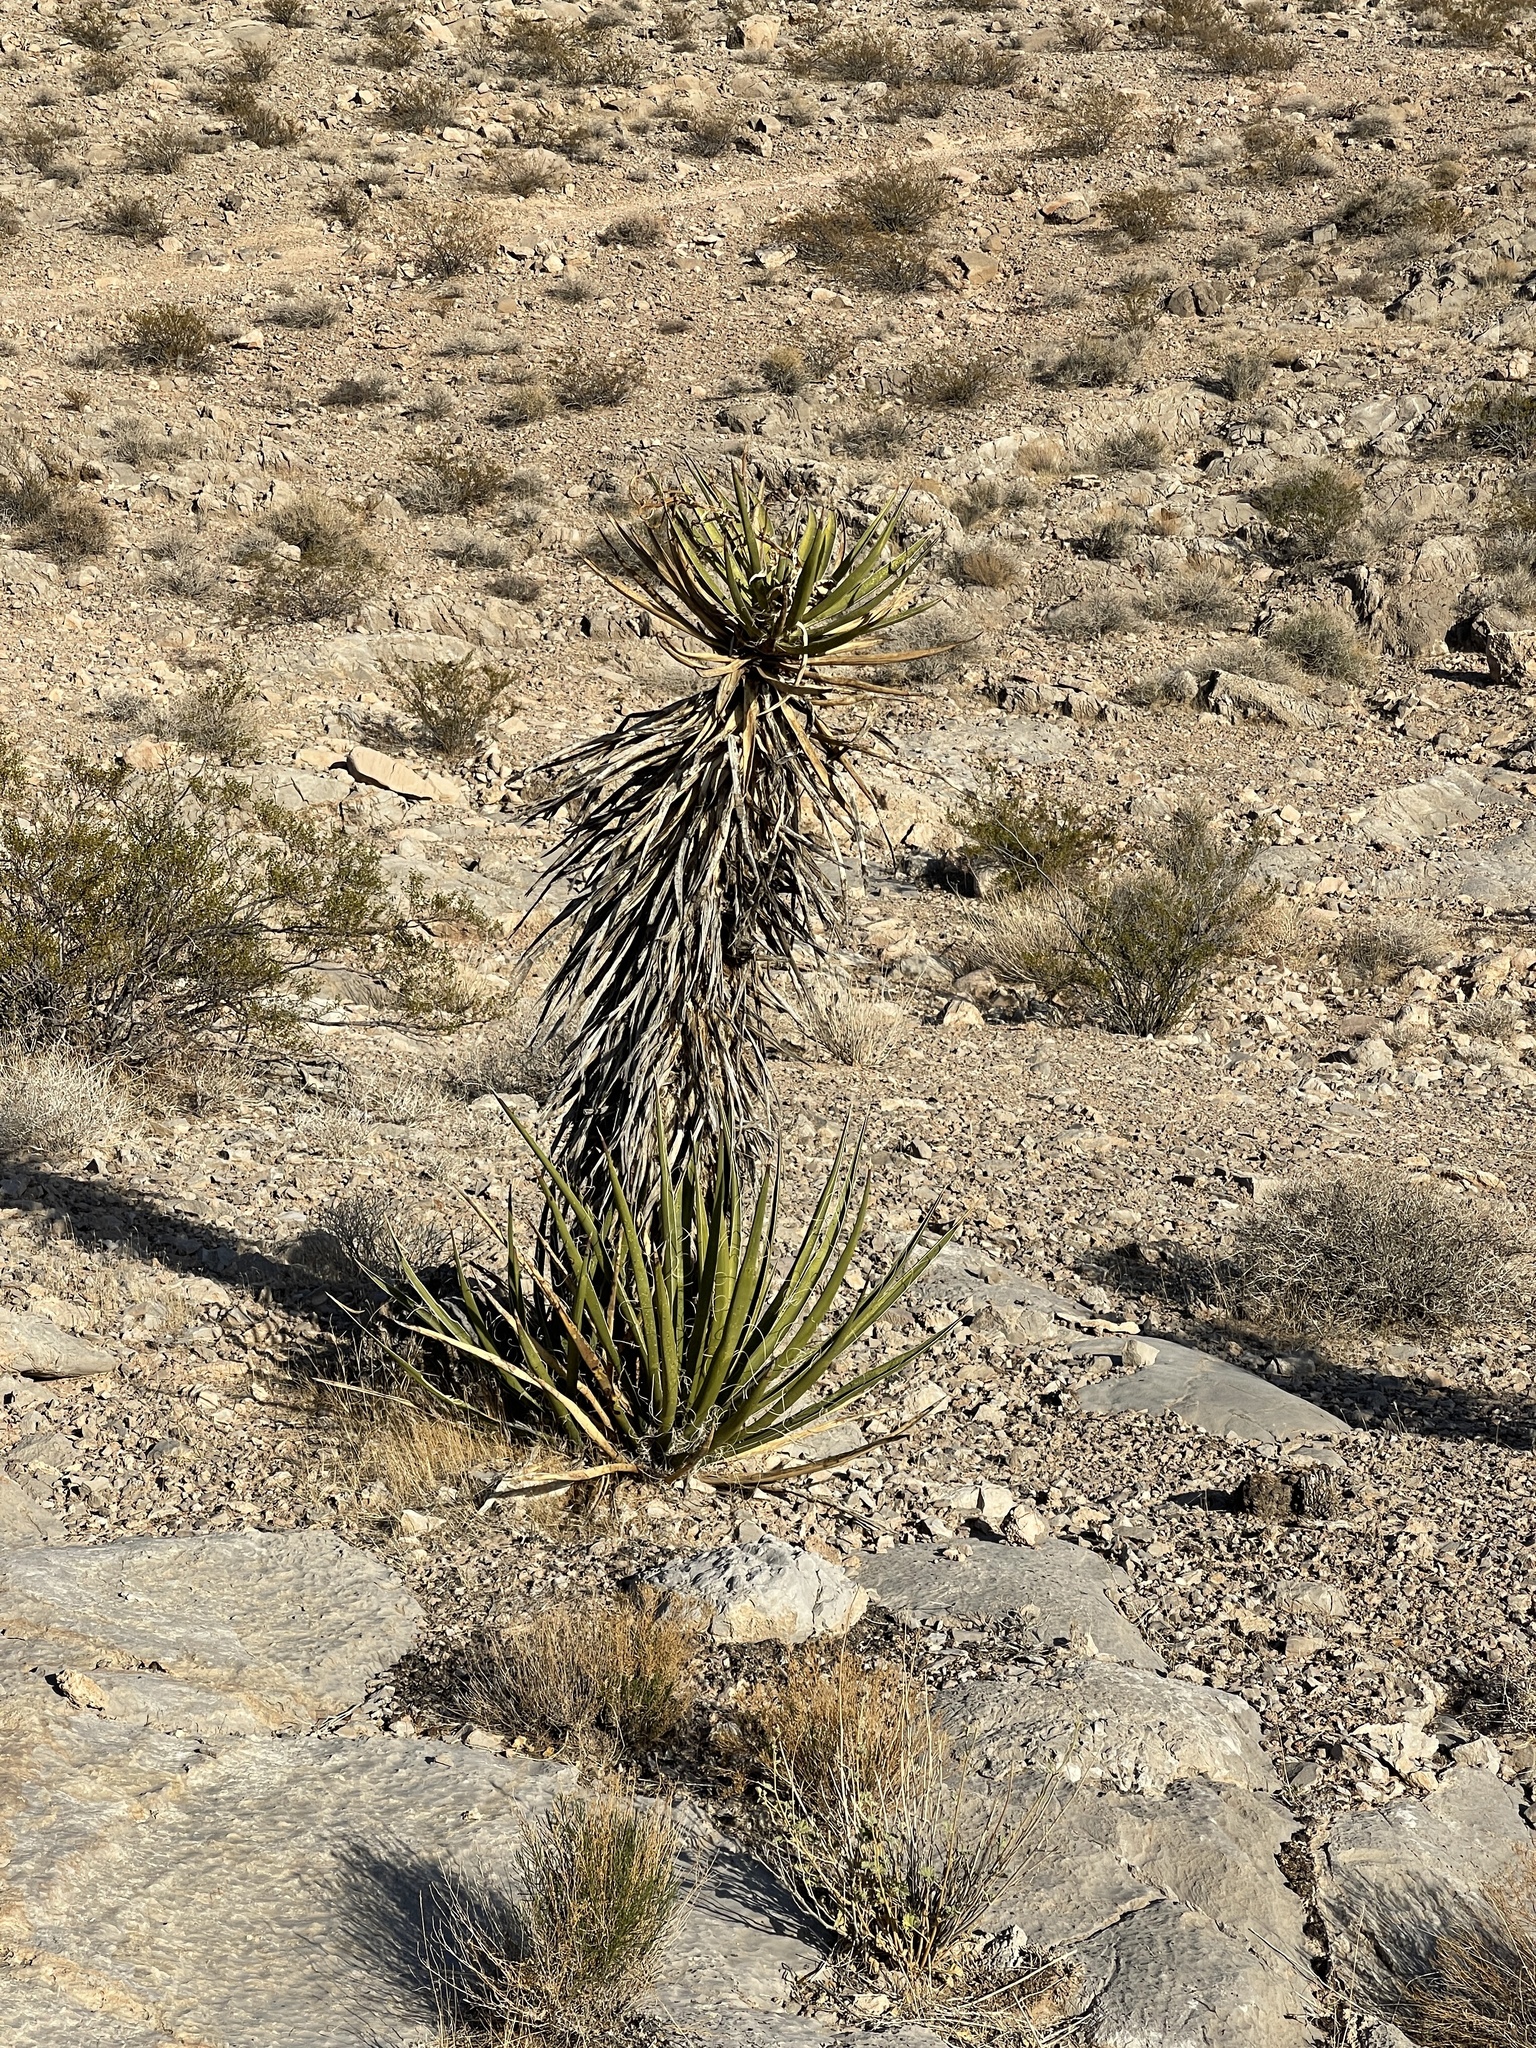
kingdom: Plantae
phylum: Tracheophyta
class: Liliopsida
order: Asparagales
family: Asparagaceae
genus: Yucca
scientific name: Yucca schidigera
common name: Mojave yucca
